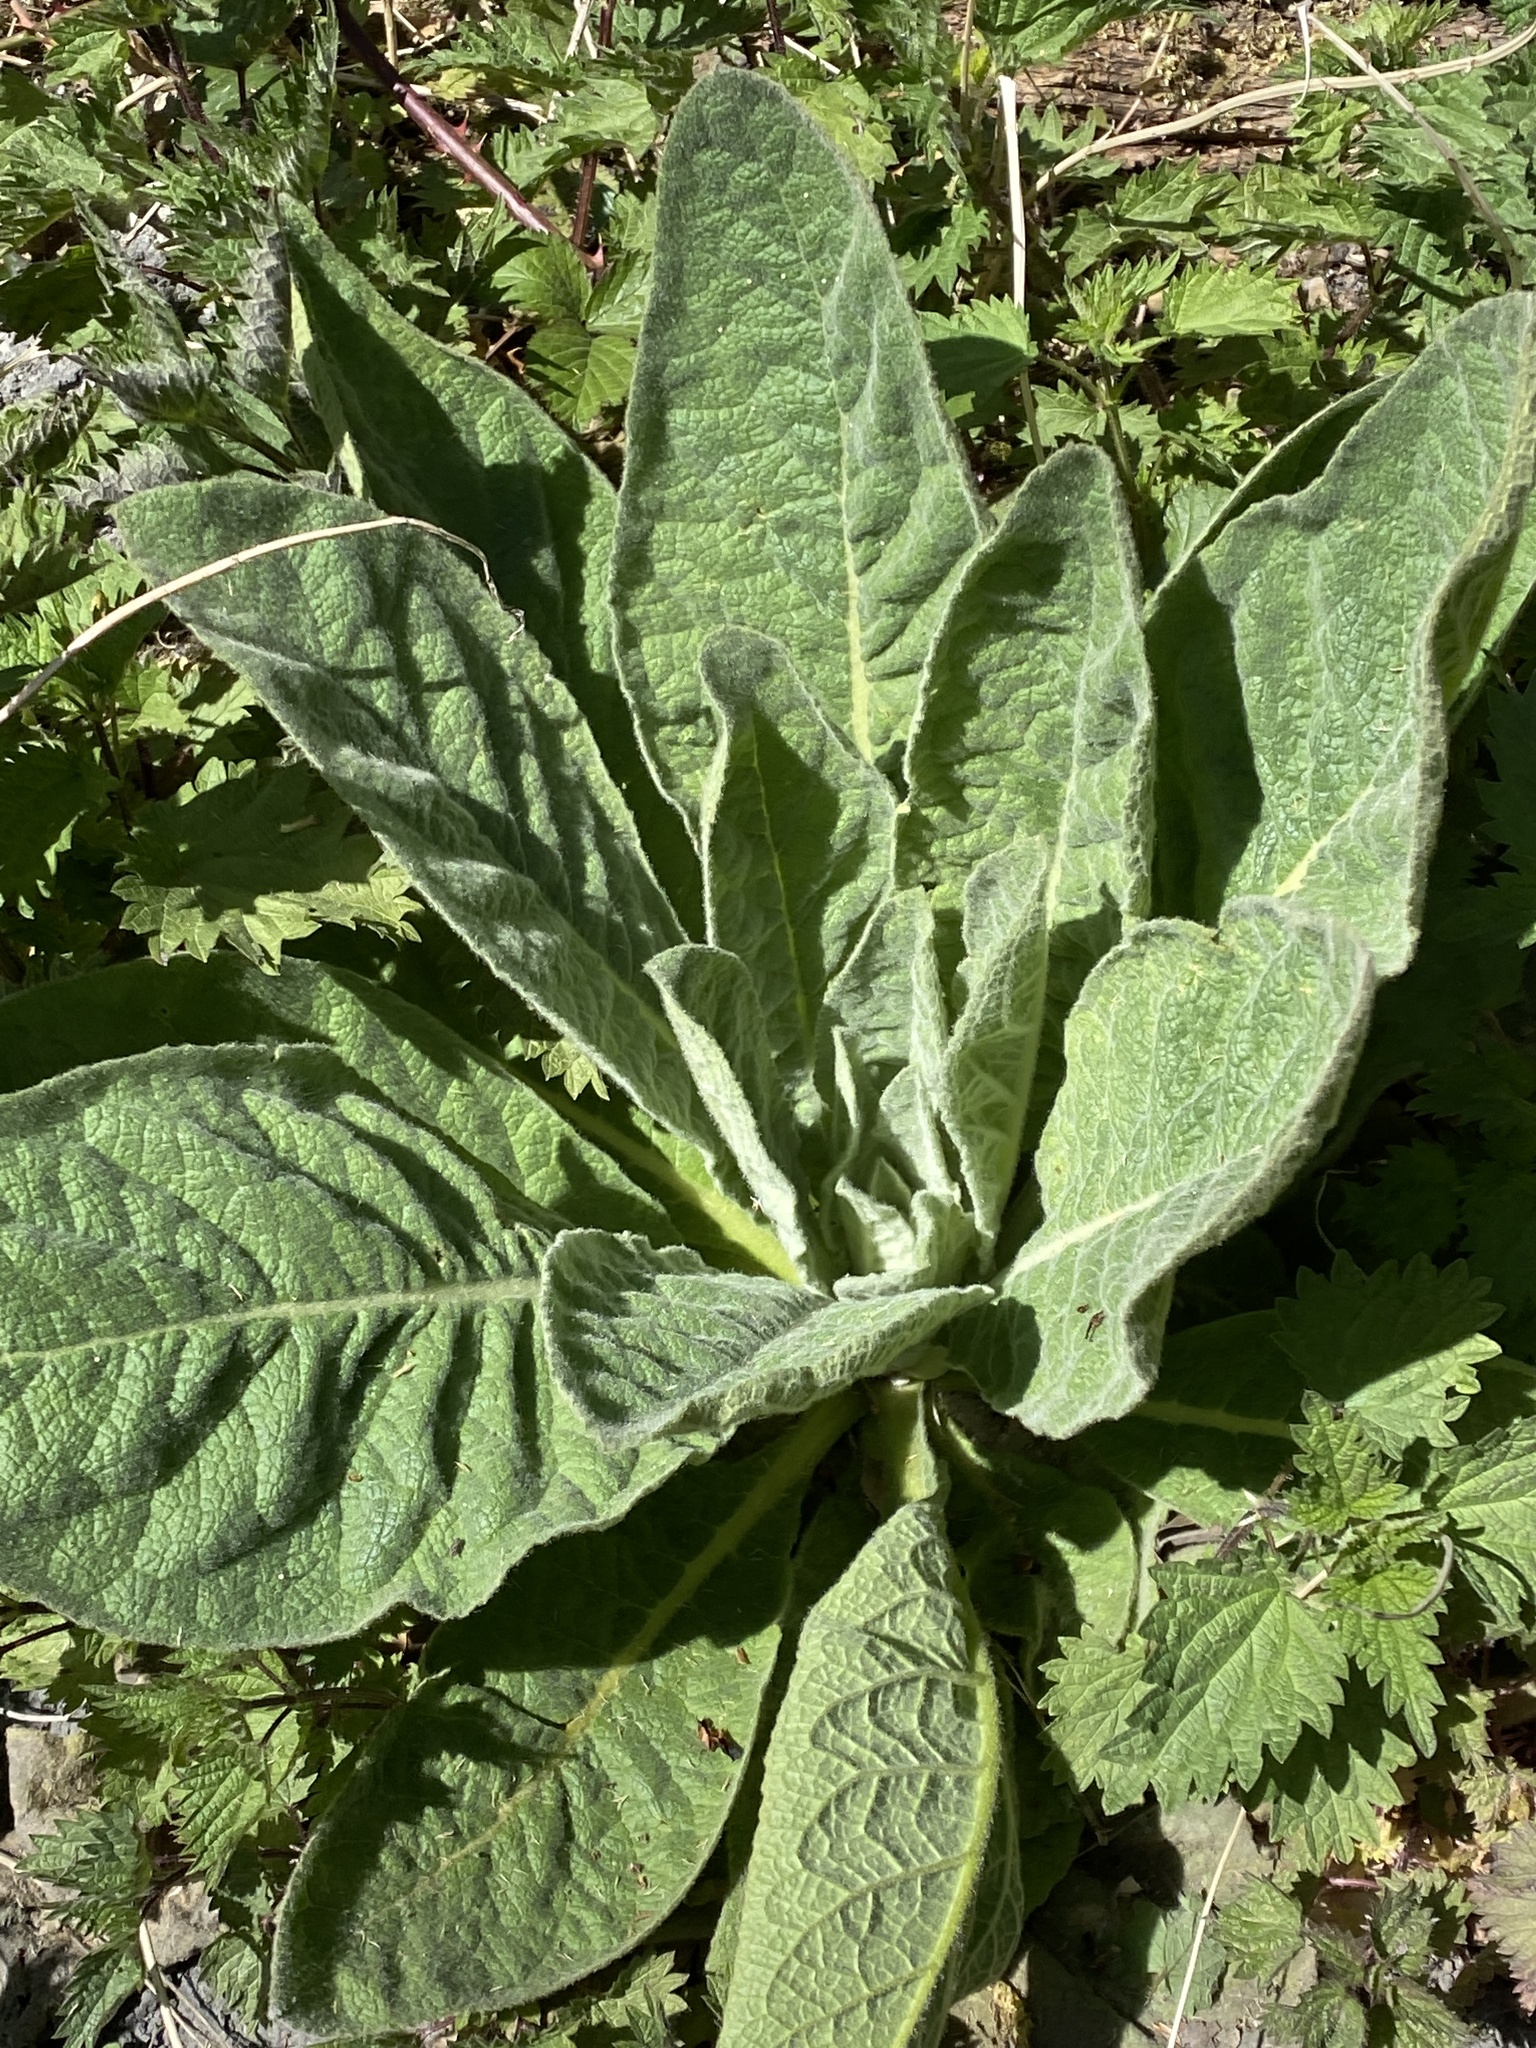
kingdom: Plantae
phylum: Tracheophyta
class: Magnoliopsida
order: Lamiales
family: Scrophulariaceae
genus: Verbascum
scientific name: Verbascum thapsus
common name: Common mullein
